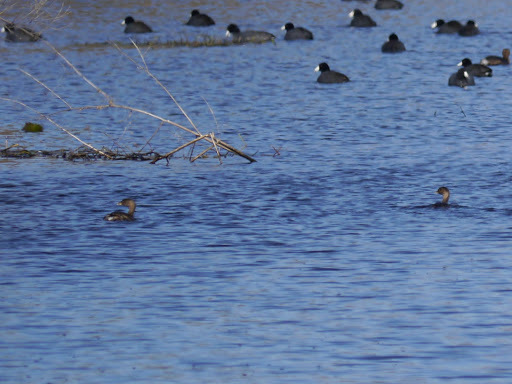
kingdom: Animalia
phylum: Chordata
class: Aves
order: Podicipediformes
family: Podicipedidae
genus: Podilymbus
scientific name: Podilymbus podiceps
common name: Pied-billed grebe
